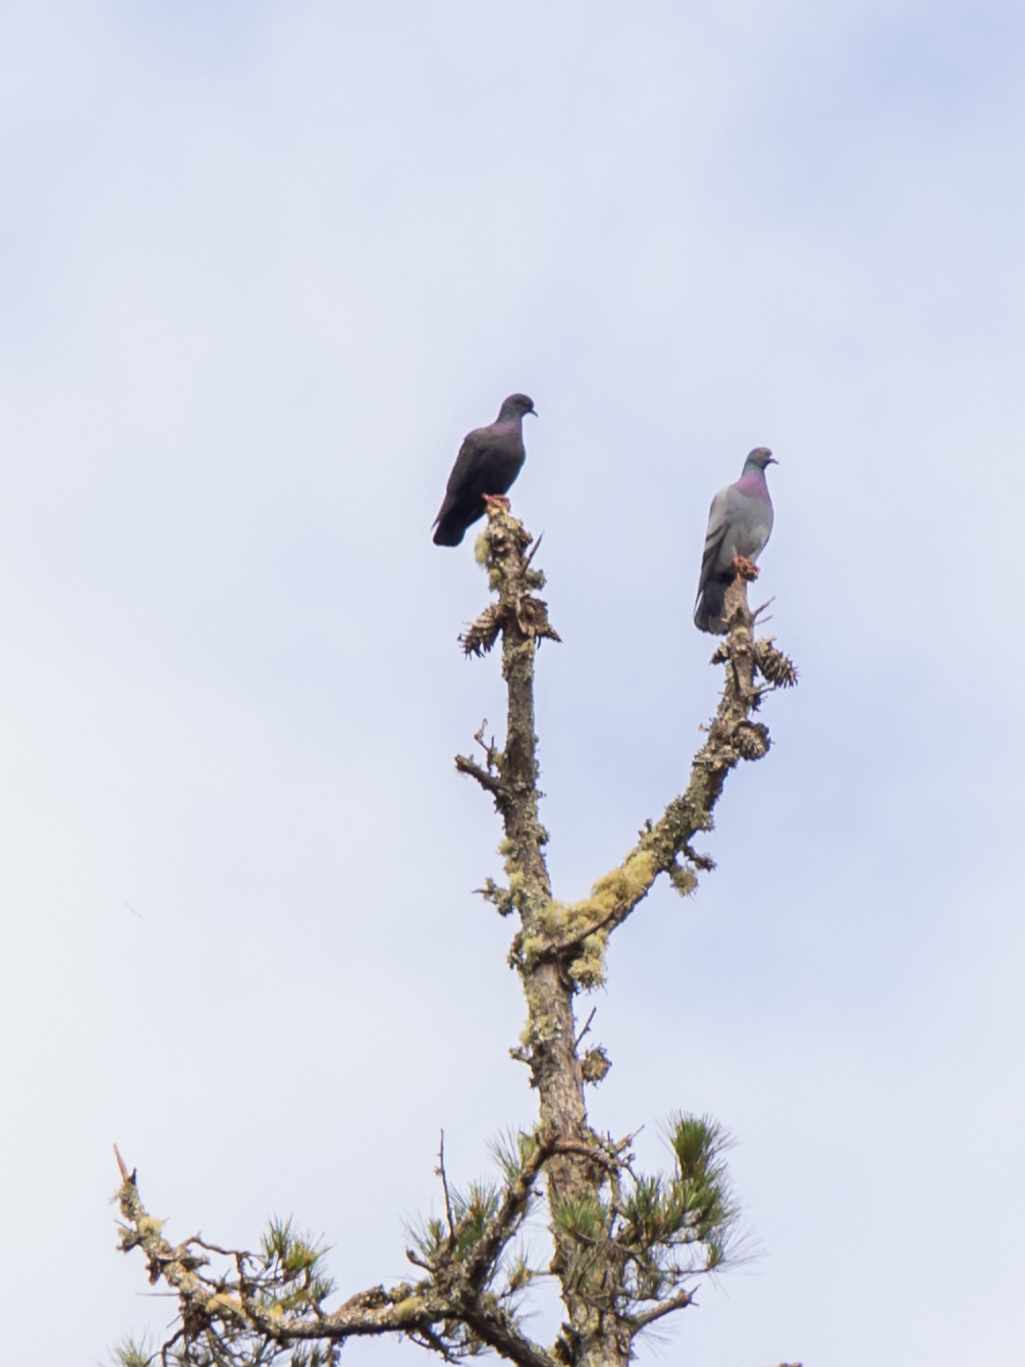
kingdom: Animalia
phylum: Chordata
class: Aves
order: Columbiformes
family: Columbidae
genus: Columba
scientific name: Columba livia
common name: Rock pigeon
